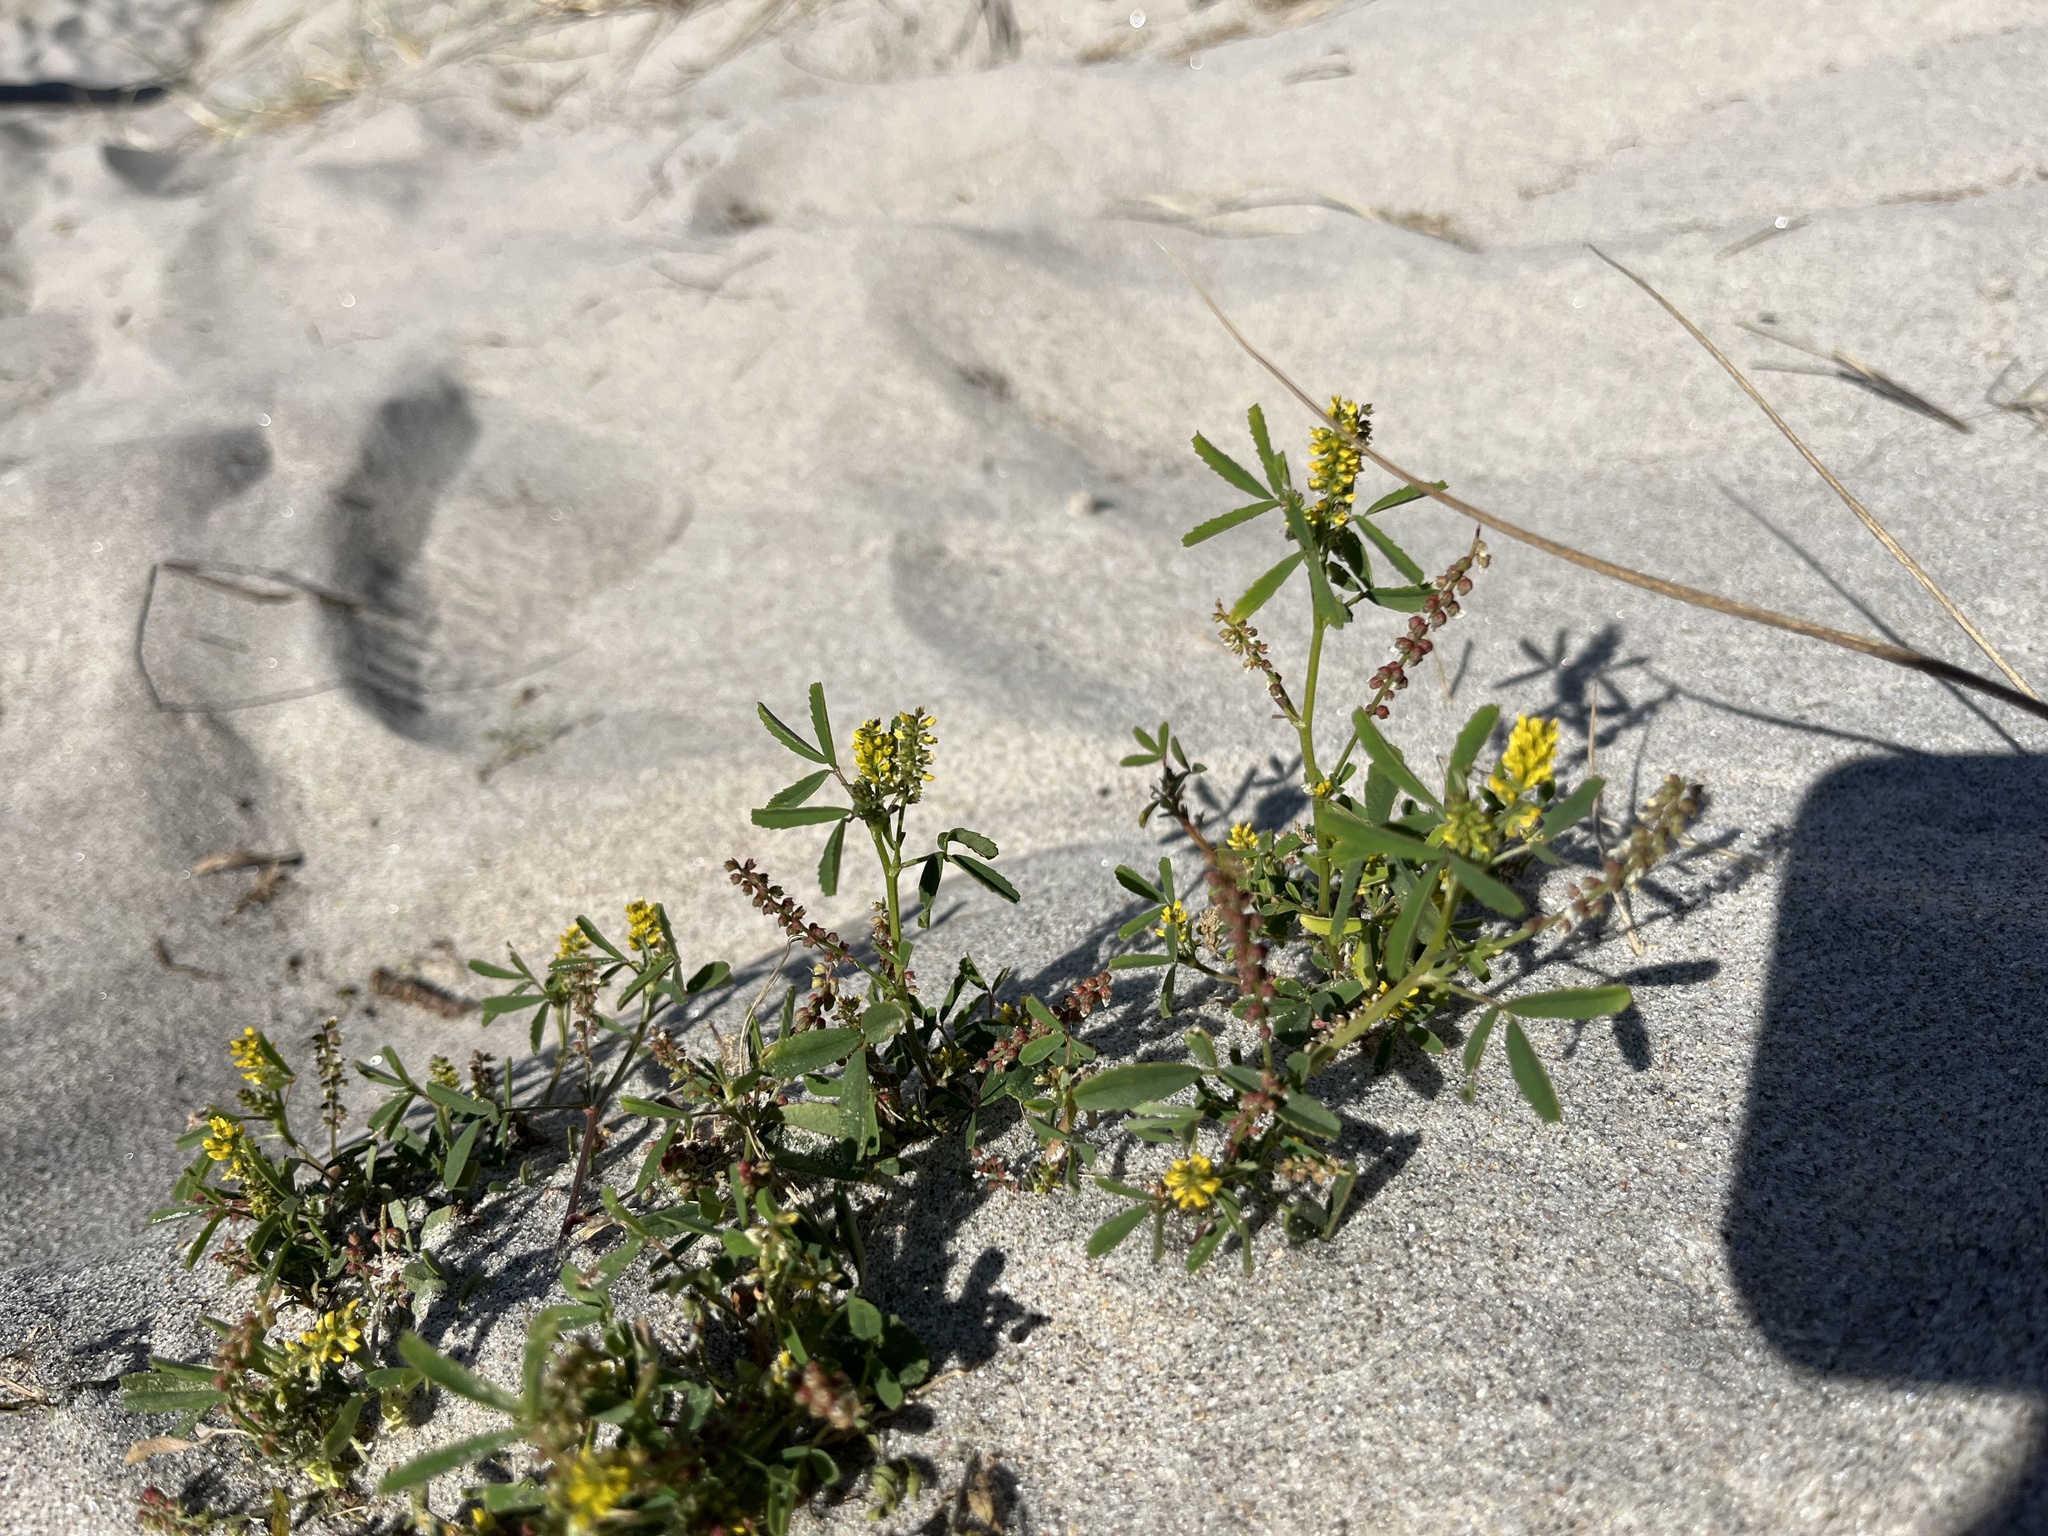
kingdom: Plantae
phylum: Tracheophyta
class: Magnoliopsida
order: Fabales
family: Fabaceae
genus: Melilotus
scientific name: Melilotus indicus
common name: Small melilot
